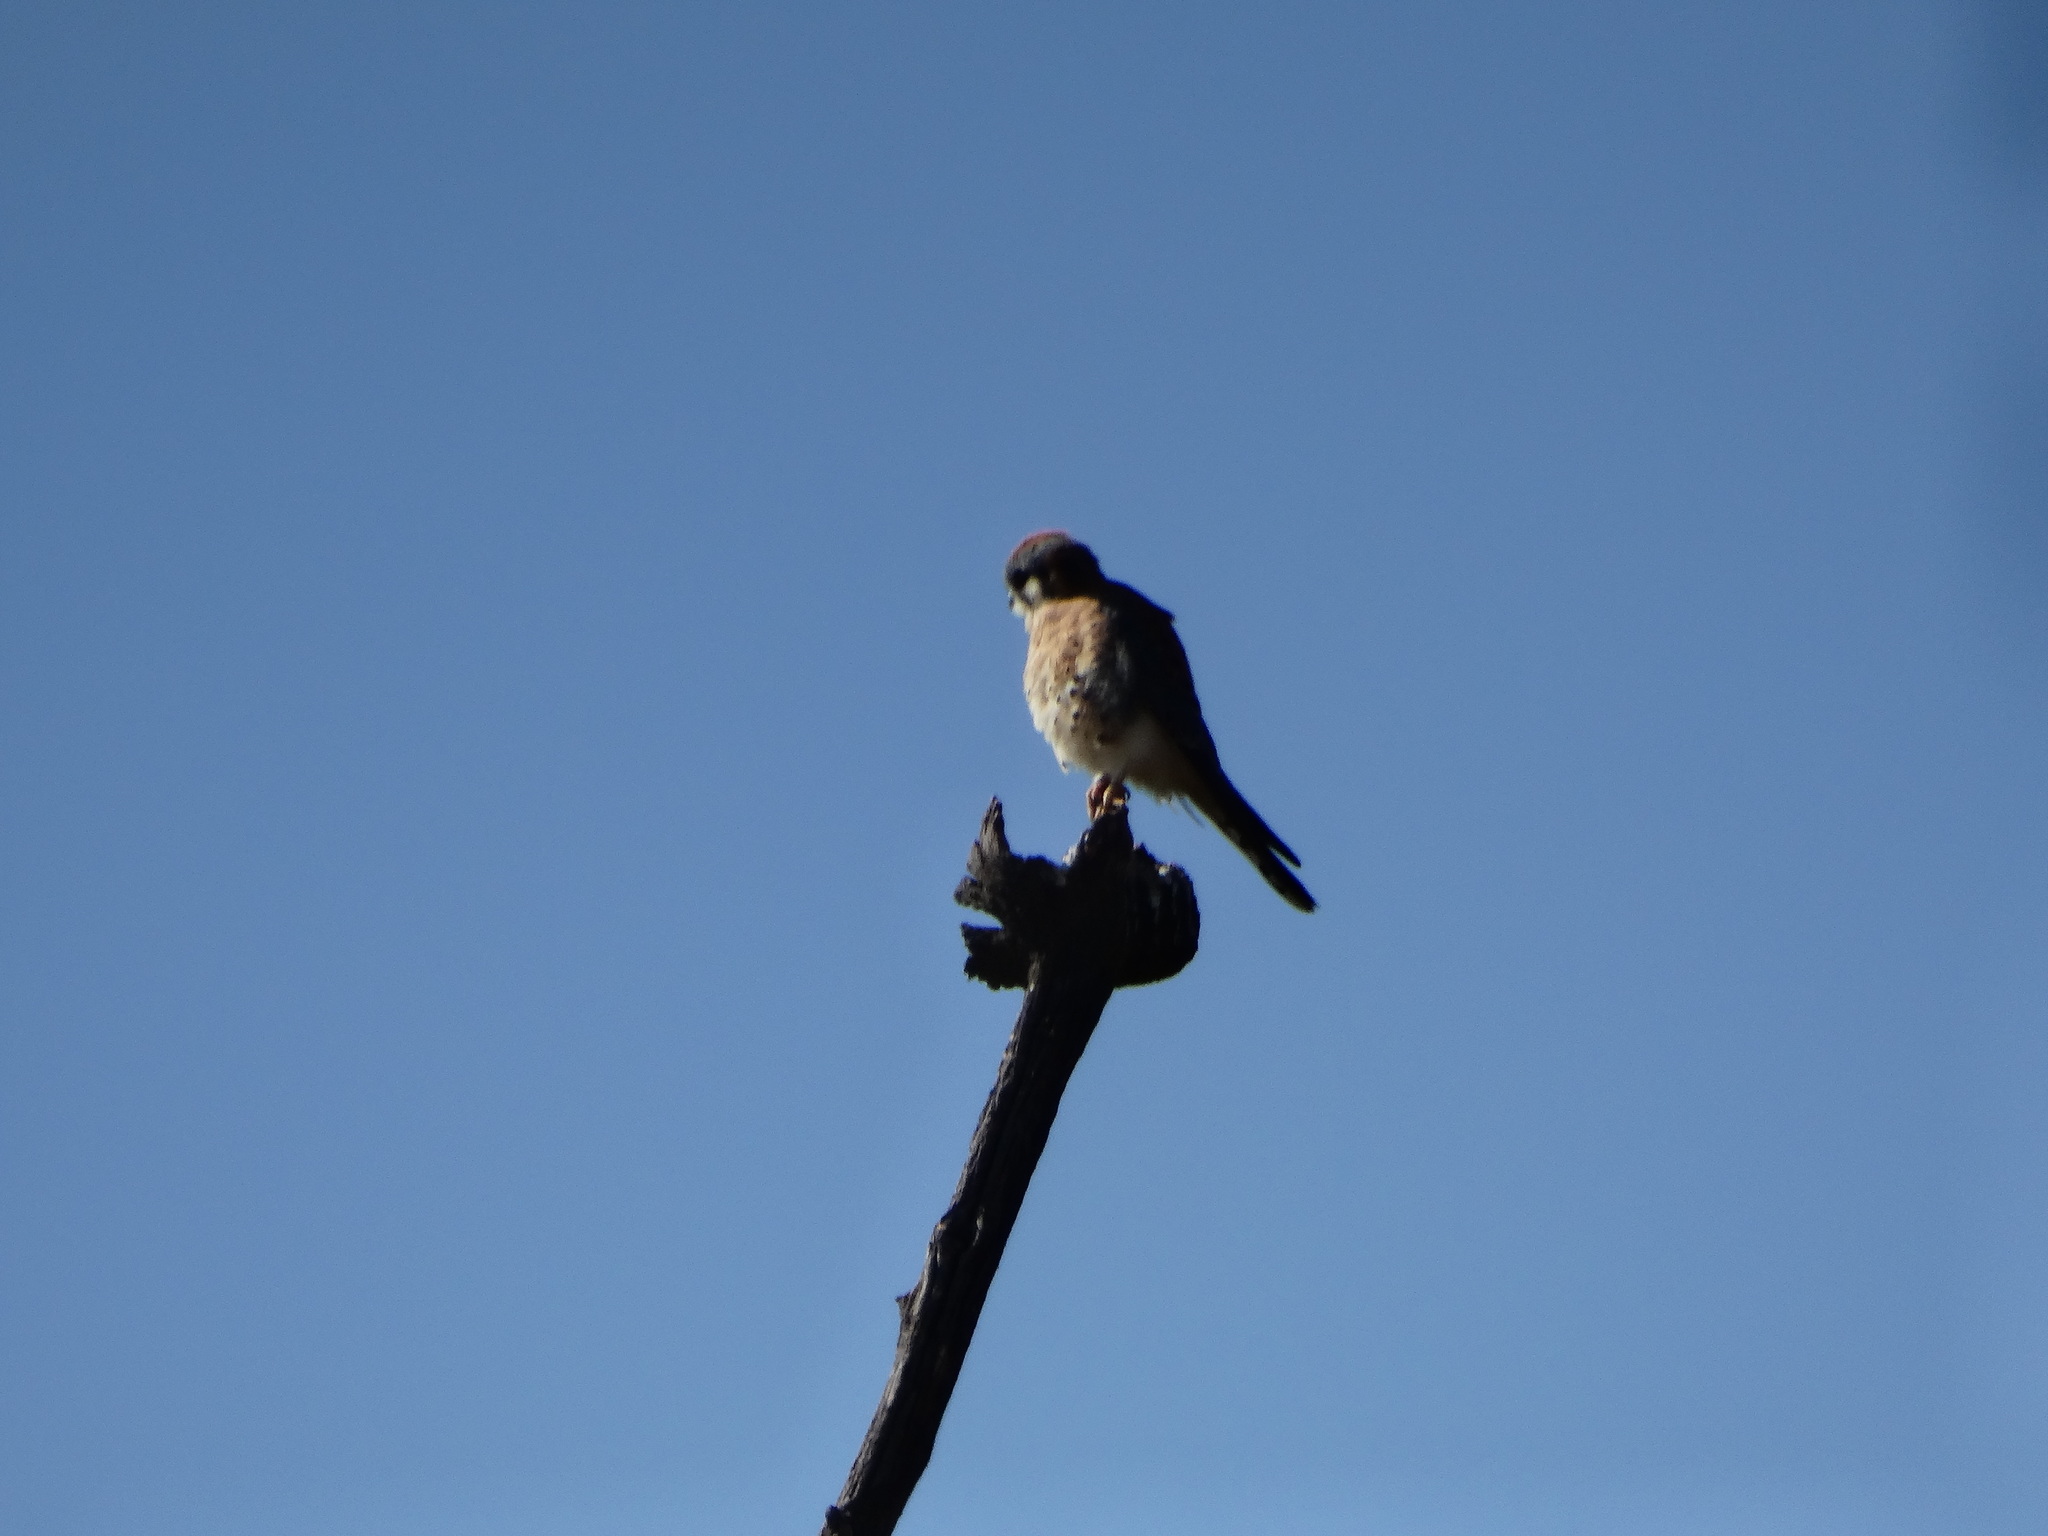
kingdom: Animalia
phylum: Chordata
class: Aves
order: Falconiformes
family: Falconidae
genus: Falco
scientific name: Falco sparverius
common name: American kestrel
